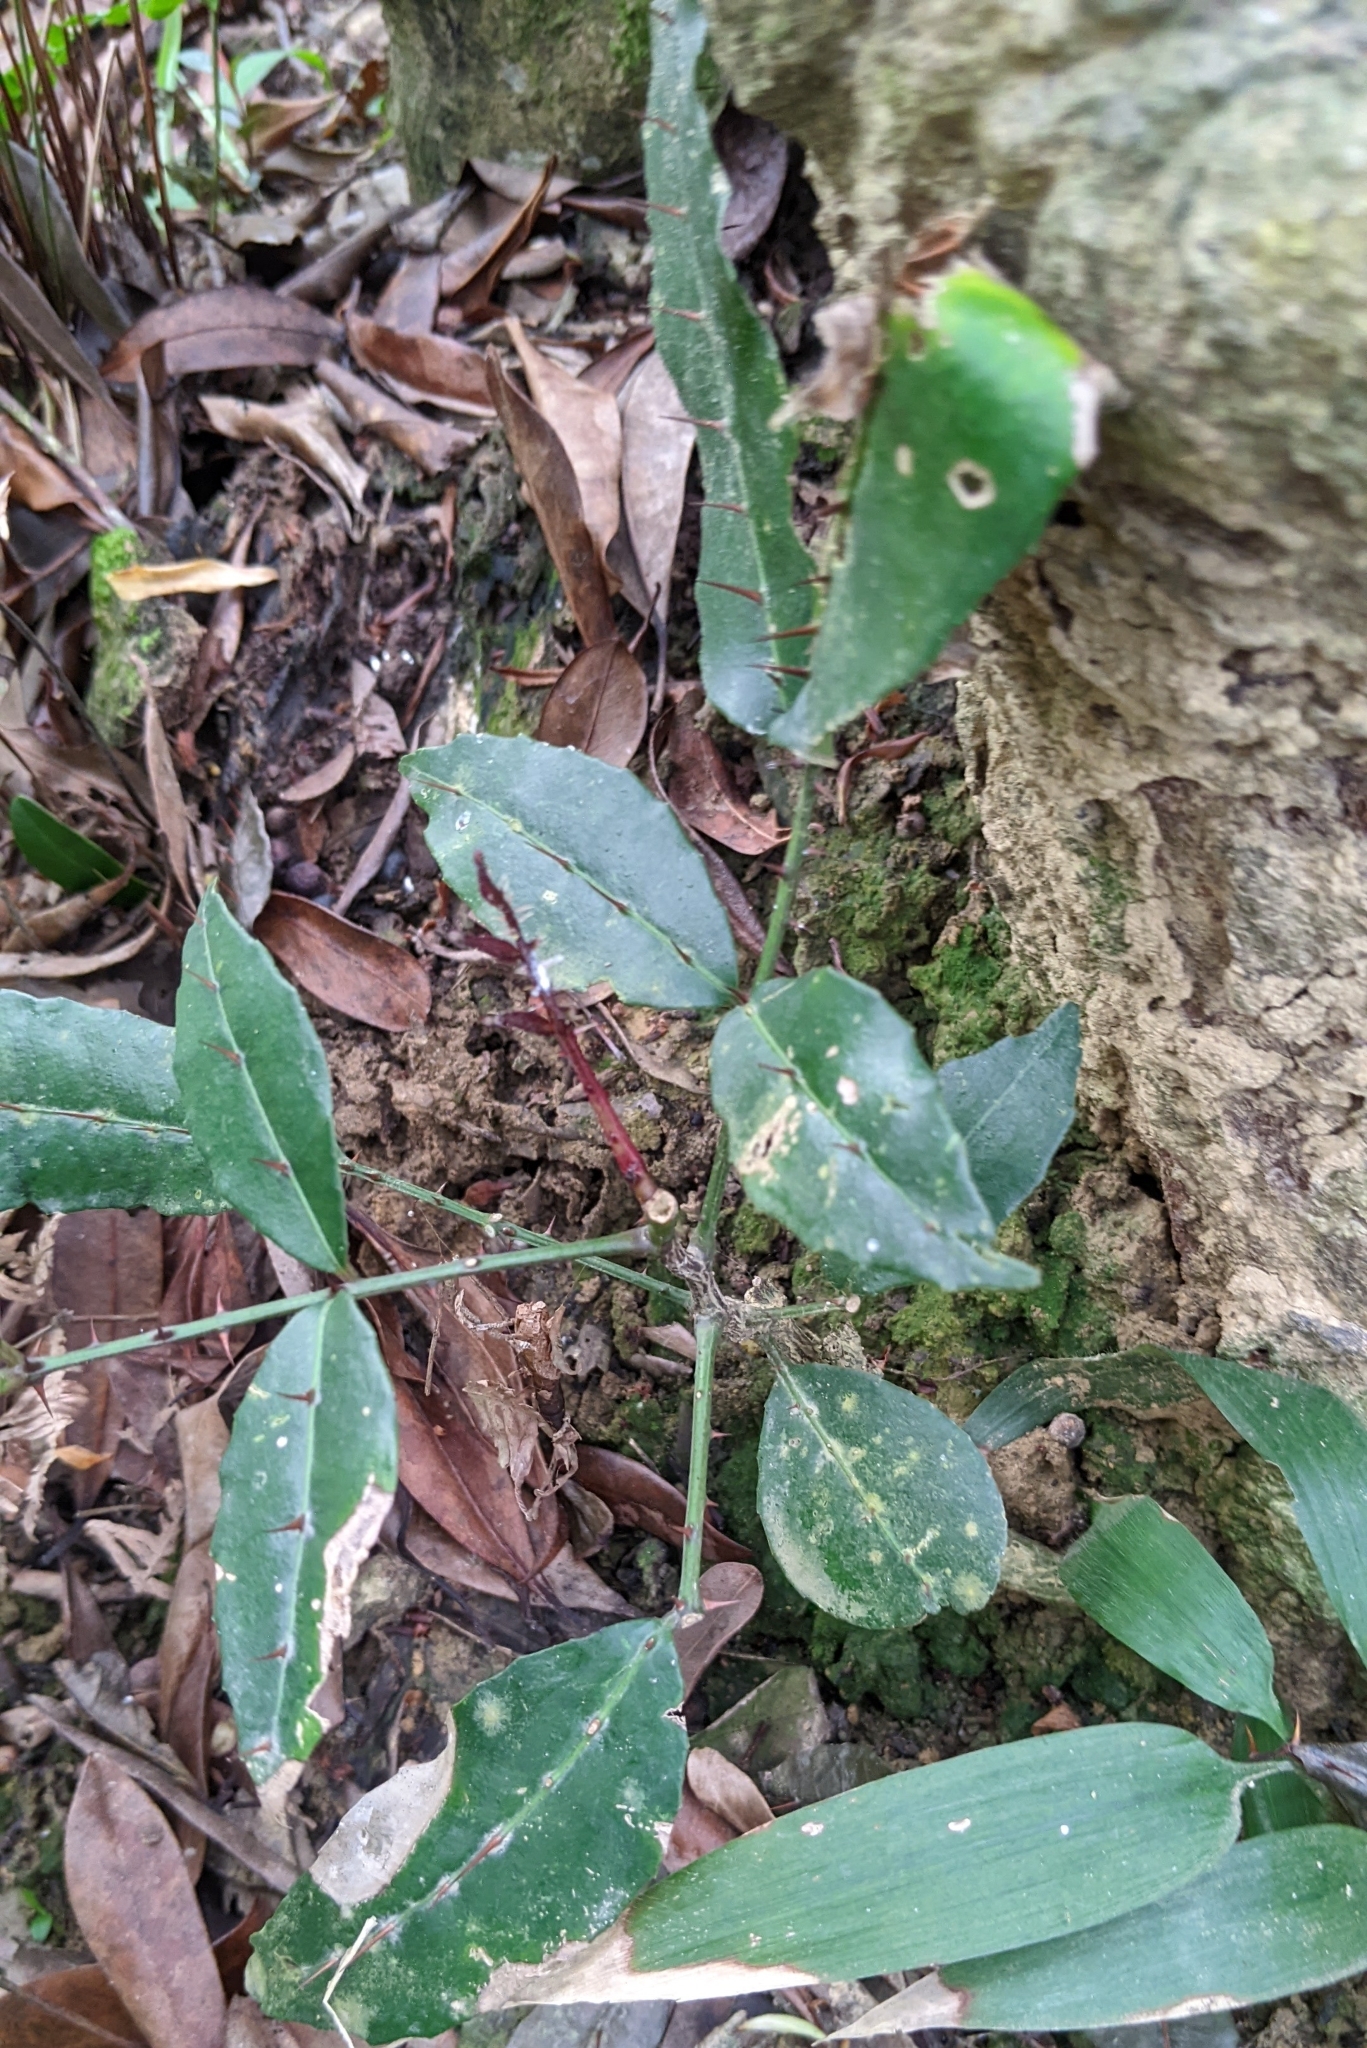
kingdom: Plantae
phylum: Tracheophyta
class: Magnoliopsida
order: Sapindales
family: Rutaceae
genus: Zanthoxylum
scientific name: Zanthoxylum nitidum
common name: Shiny-leaf prickly-ash
